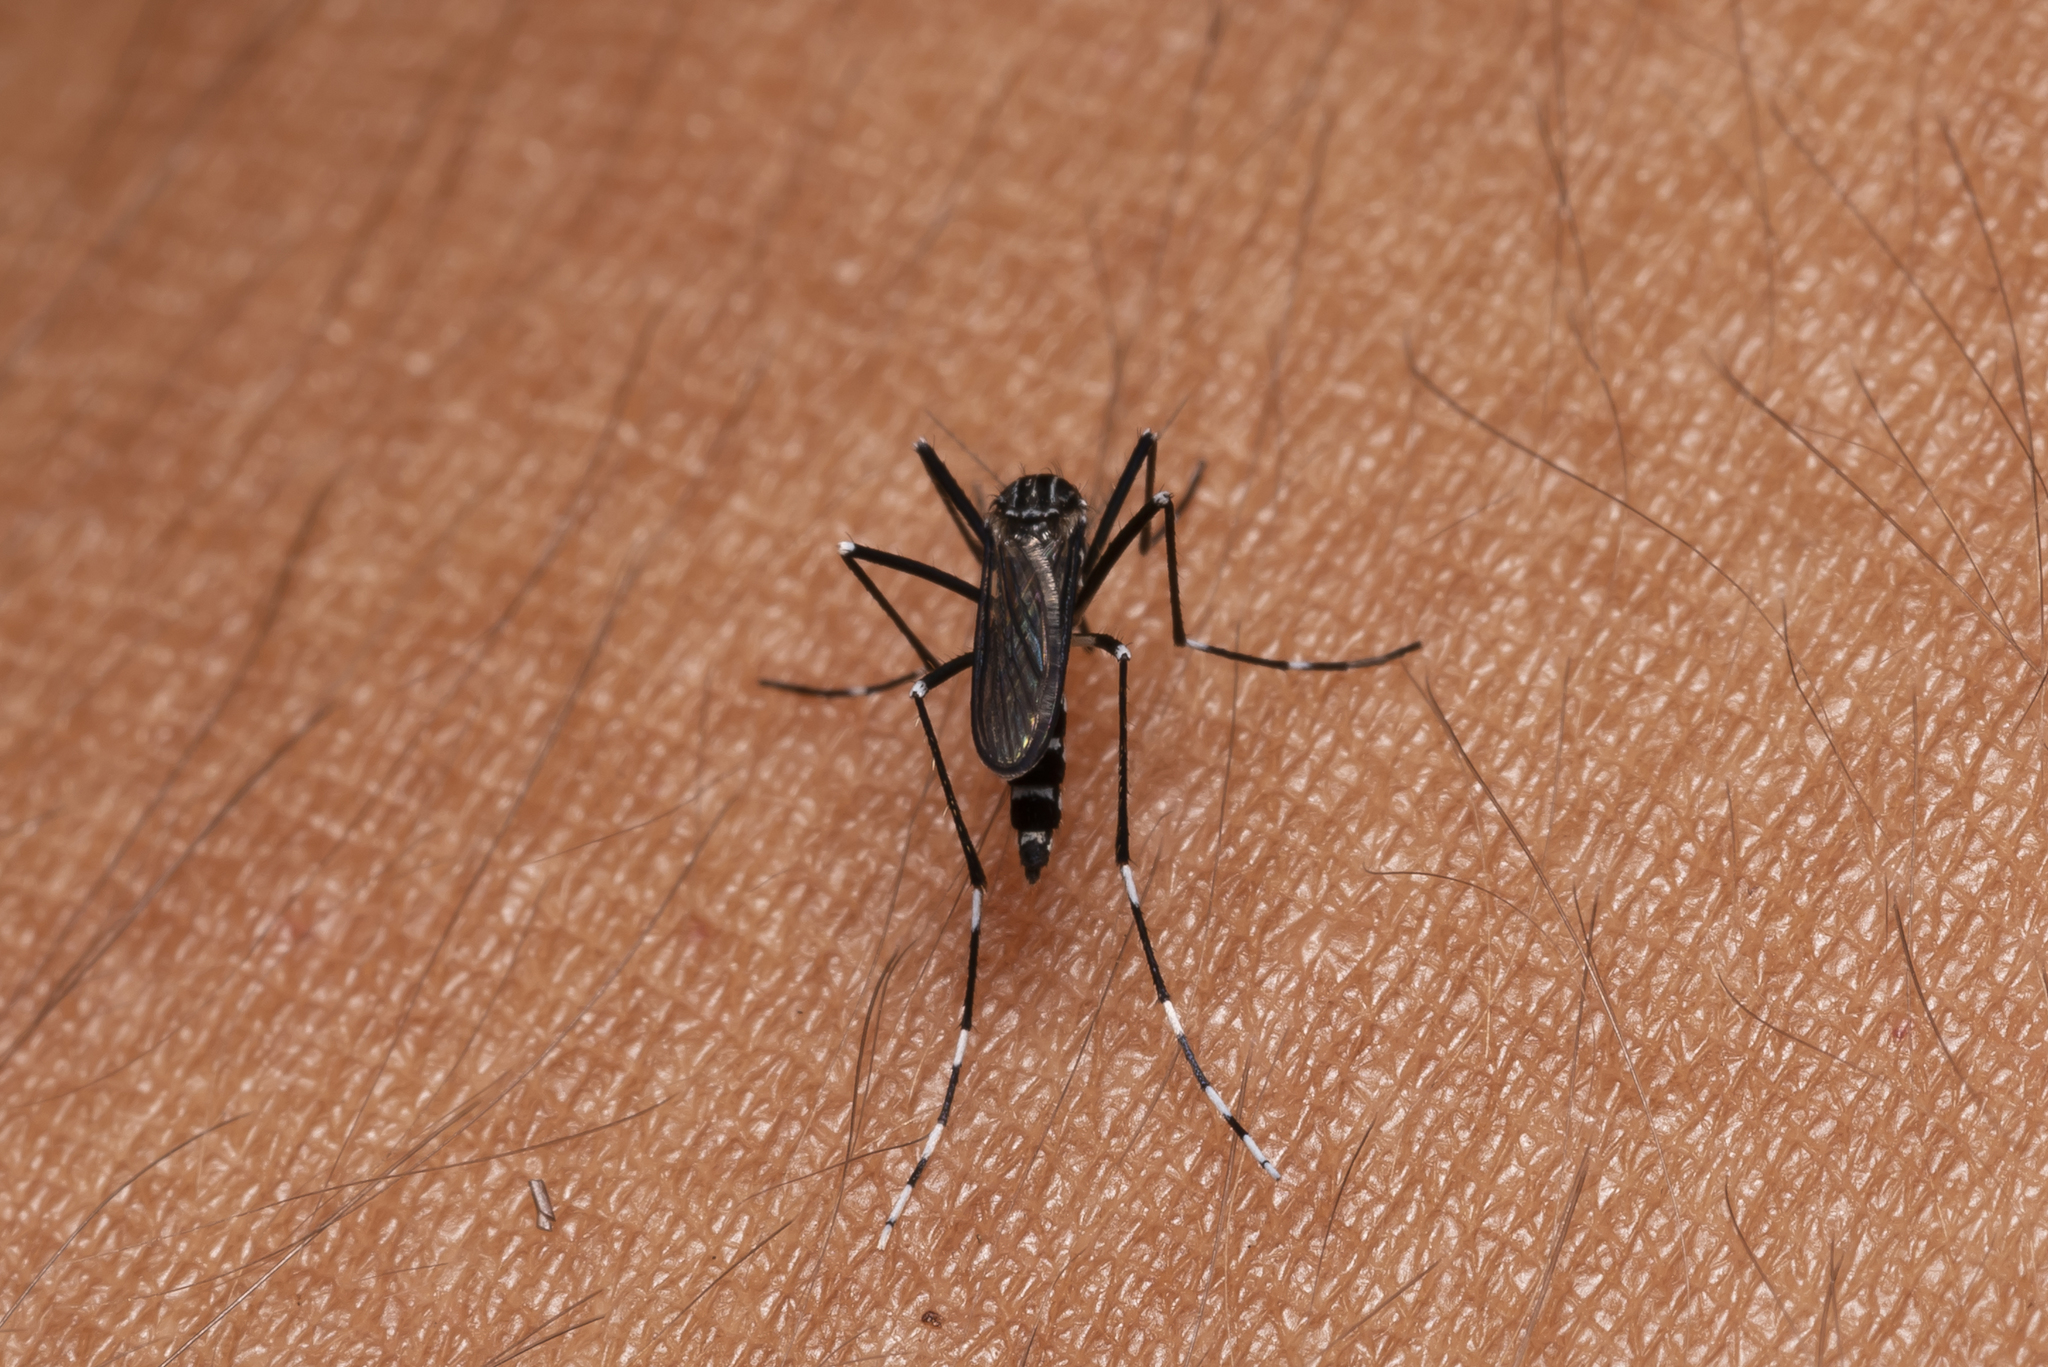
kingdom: Animalia
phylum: Arthropoda
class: Insecta
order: Diptera
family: Culicidae
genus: Aedes
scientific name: Aedes cretinus
